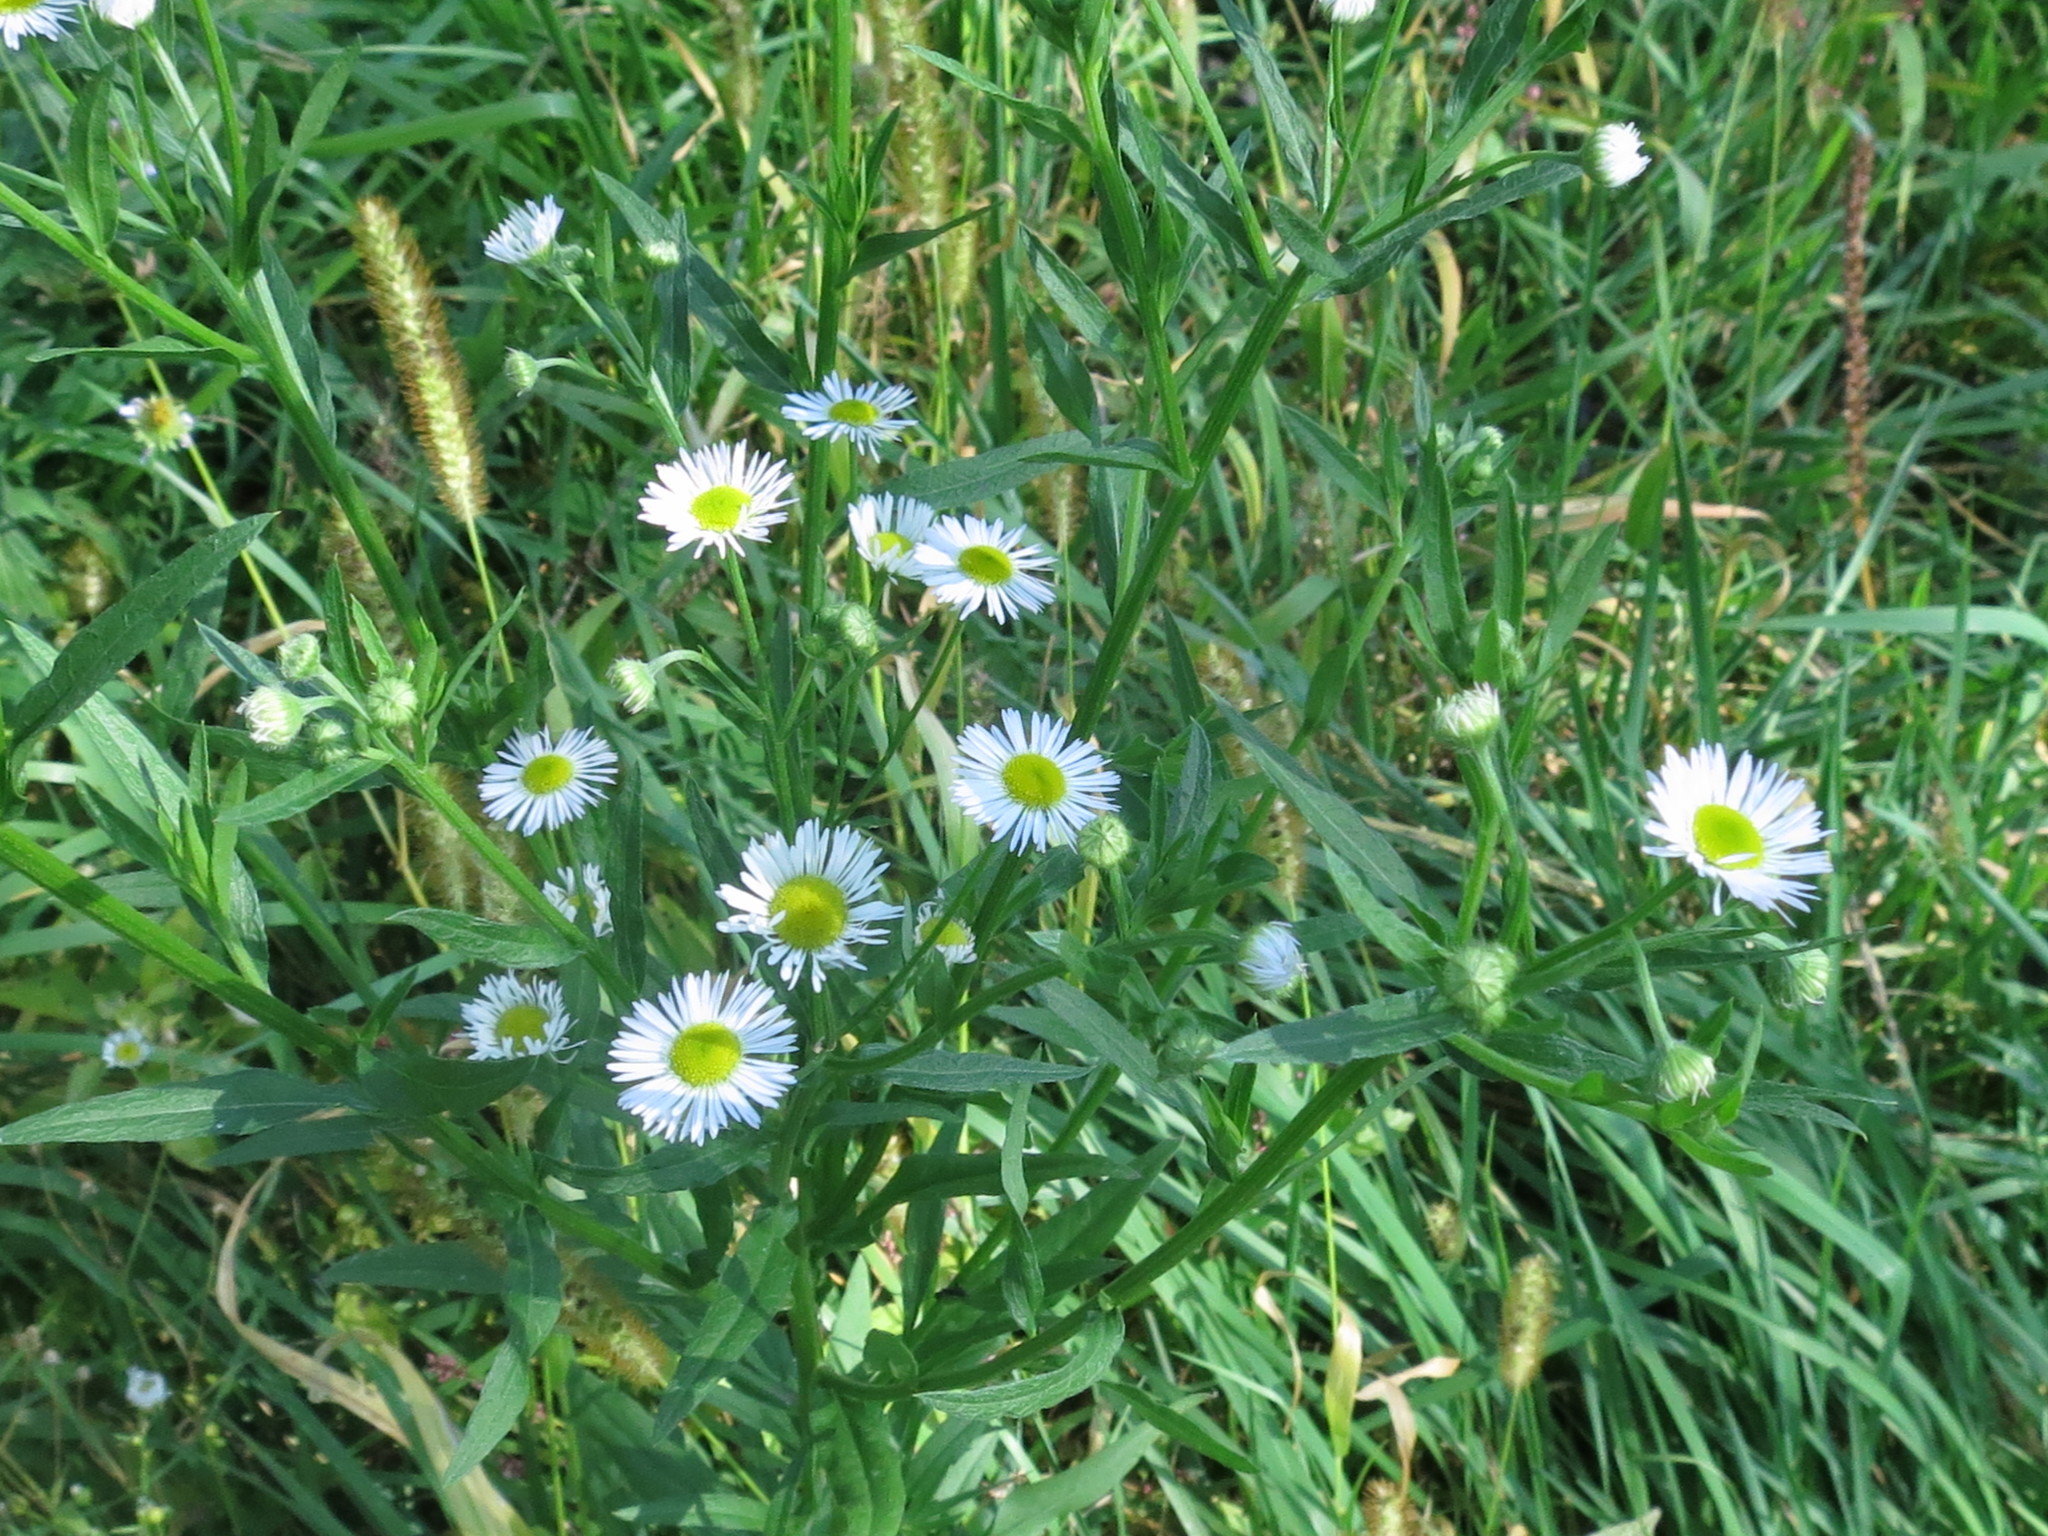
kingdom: Plantae
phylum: Tracheophyta
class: Magnoliopsida
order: Asterales
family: Asteraceae
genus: Erigeron
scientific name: Erigeron strigosus
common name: Common eastern fleabane
